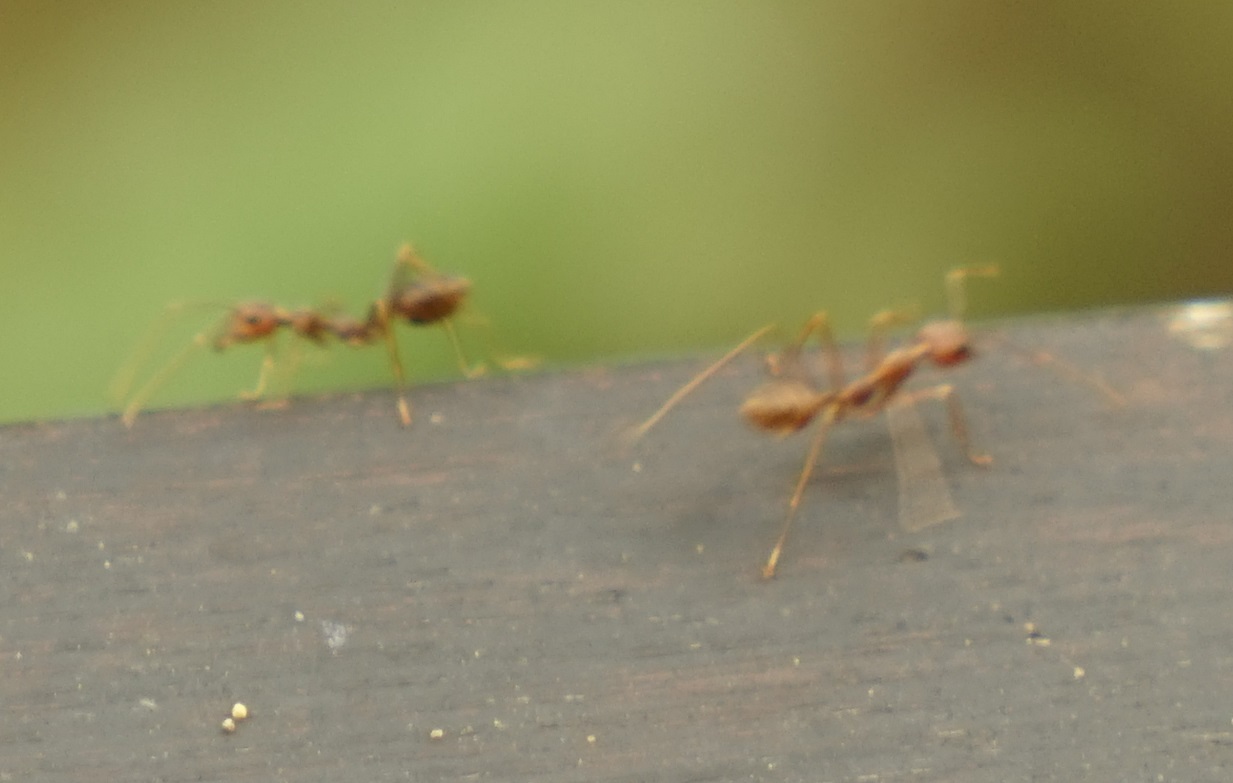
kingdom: Animalia
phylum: Arthropoda
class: Insecta
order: Hymenoptera
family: Formicidae
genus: Oecophylla
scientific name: Oecophylla smaragdina
